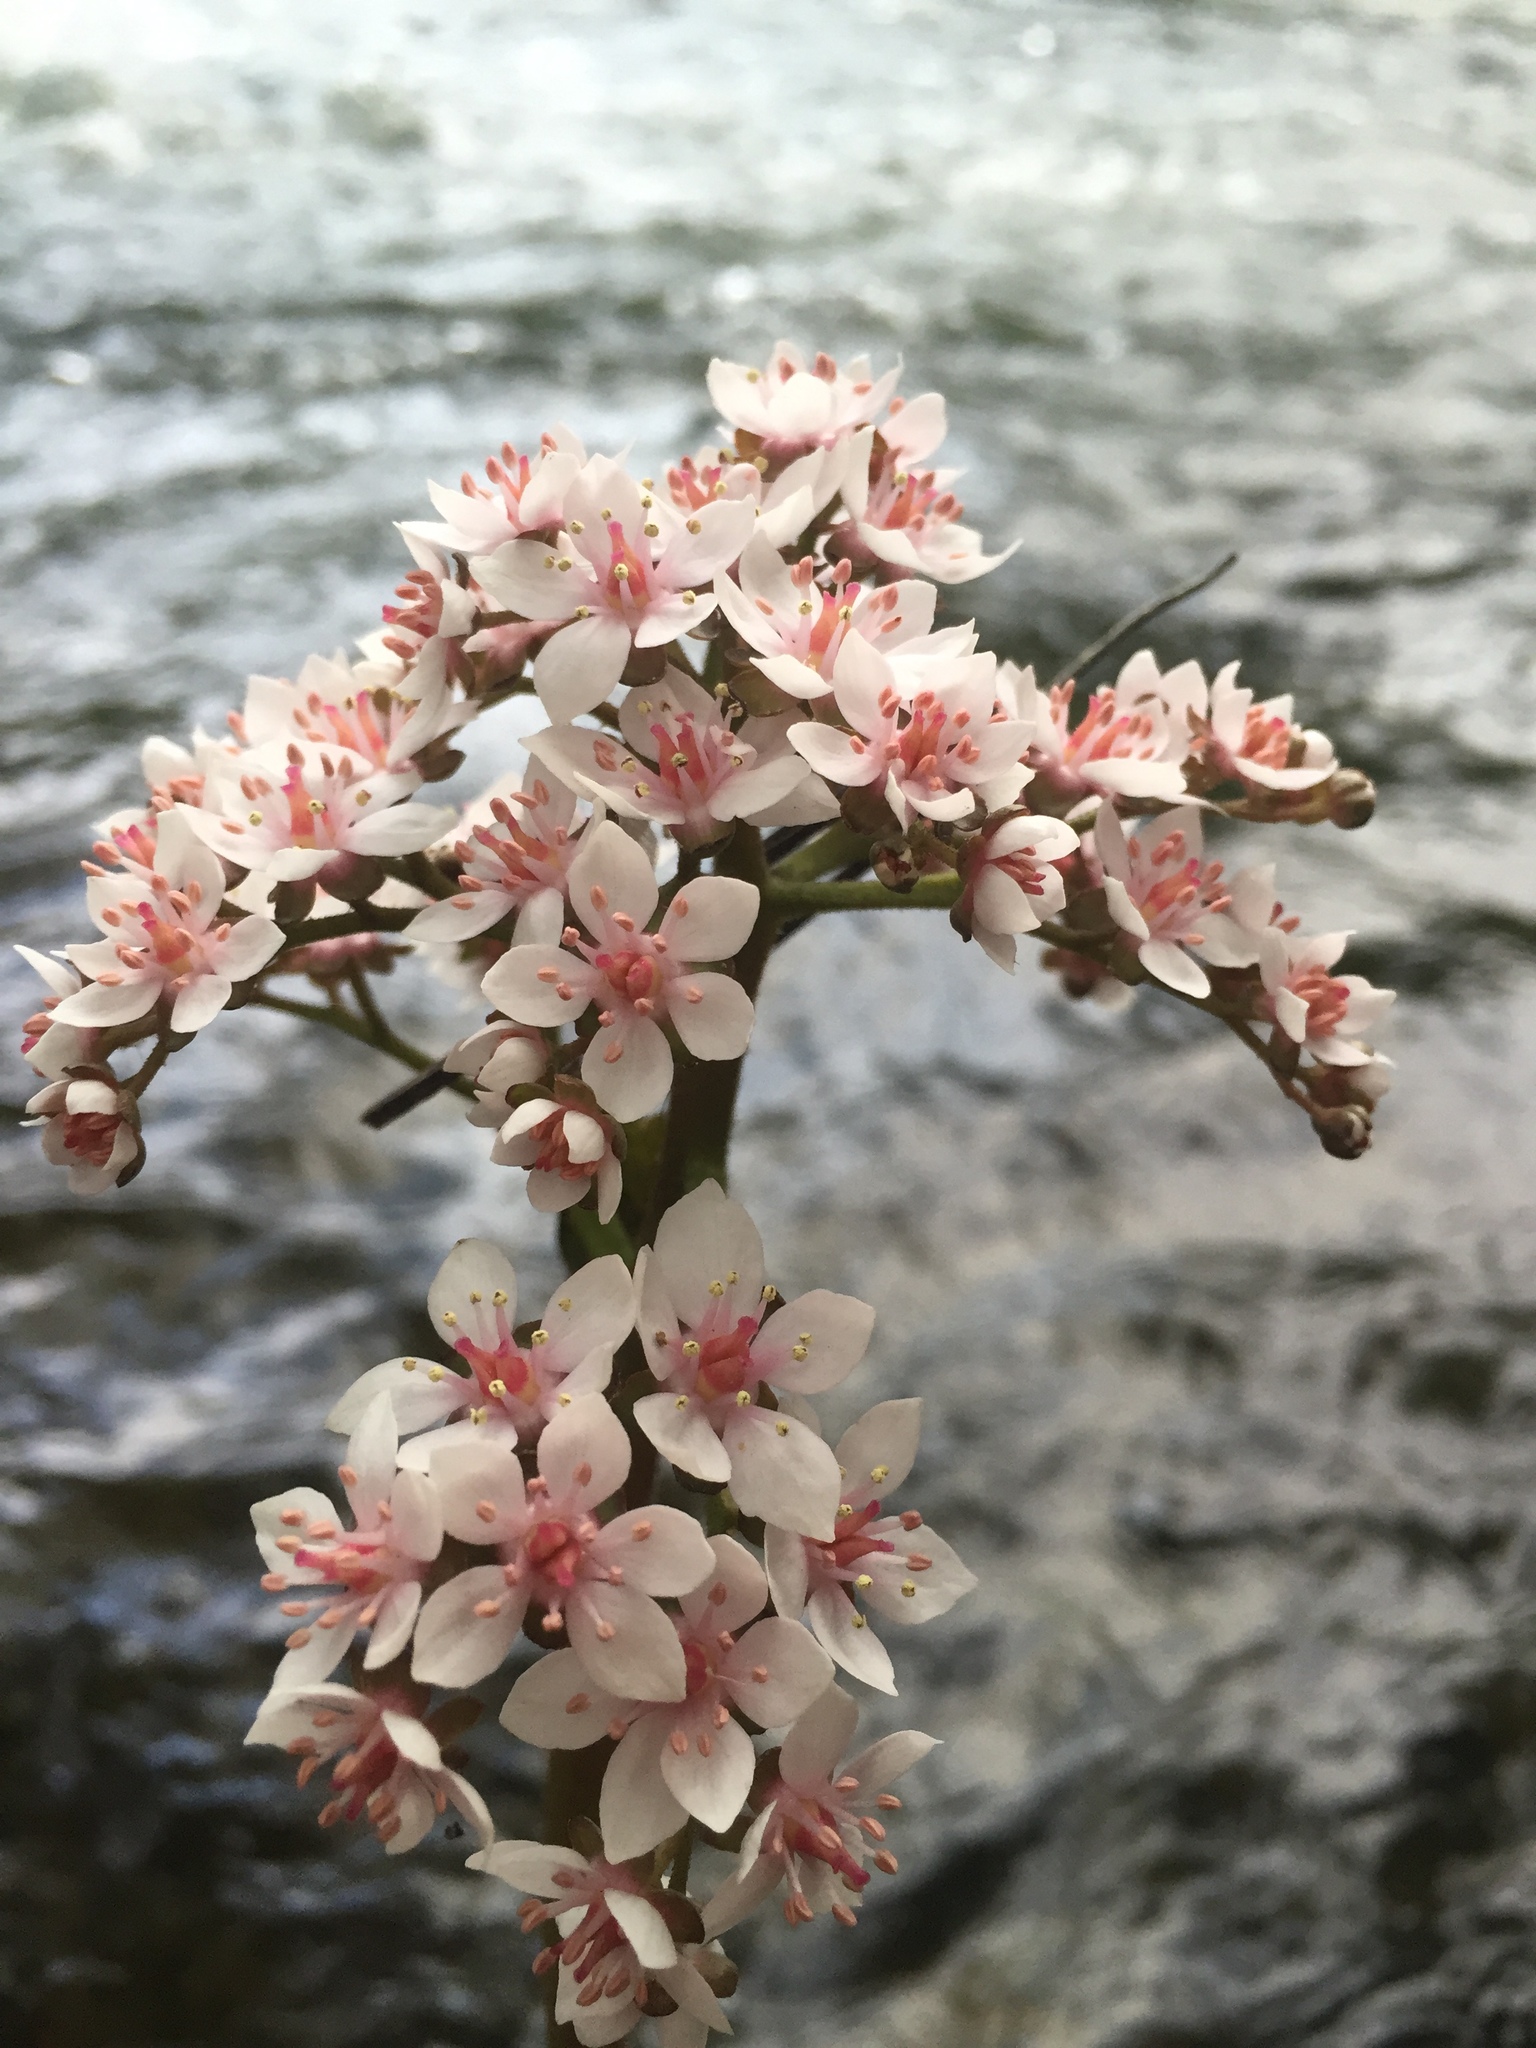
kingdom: Plantae
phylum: Tracheophyta
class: Magnoliopsida
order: Saxifragales
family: Saxifragaceae
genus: Darmera
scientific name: Darmera peltata
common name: Indian-rhubarb
